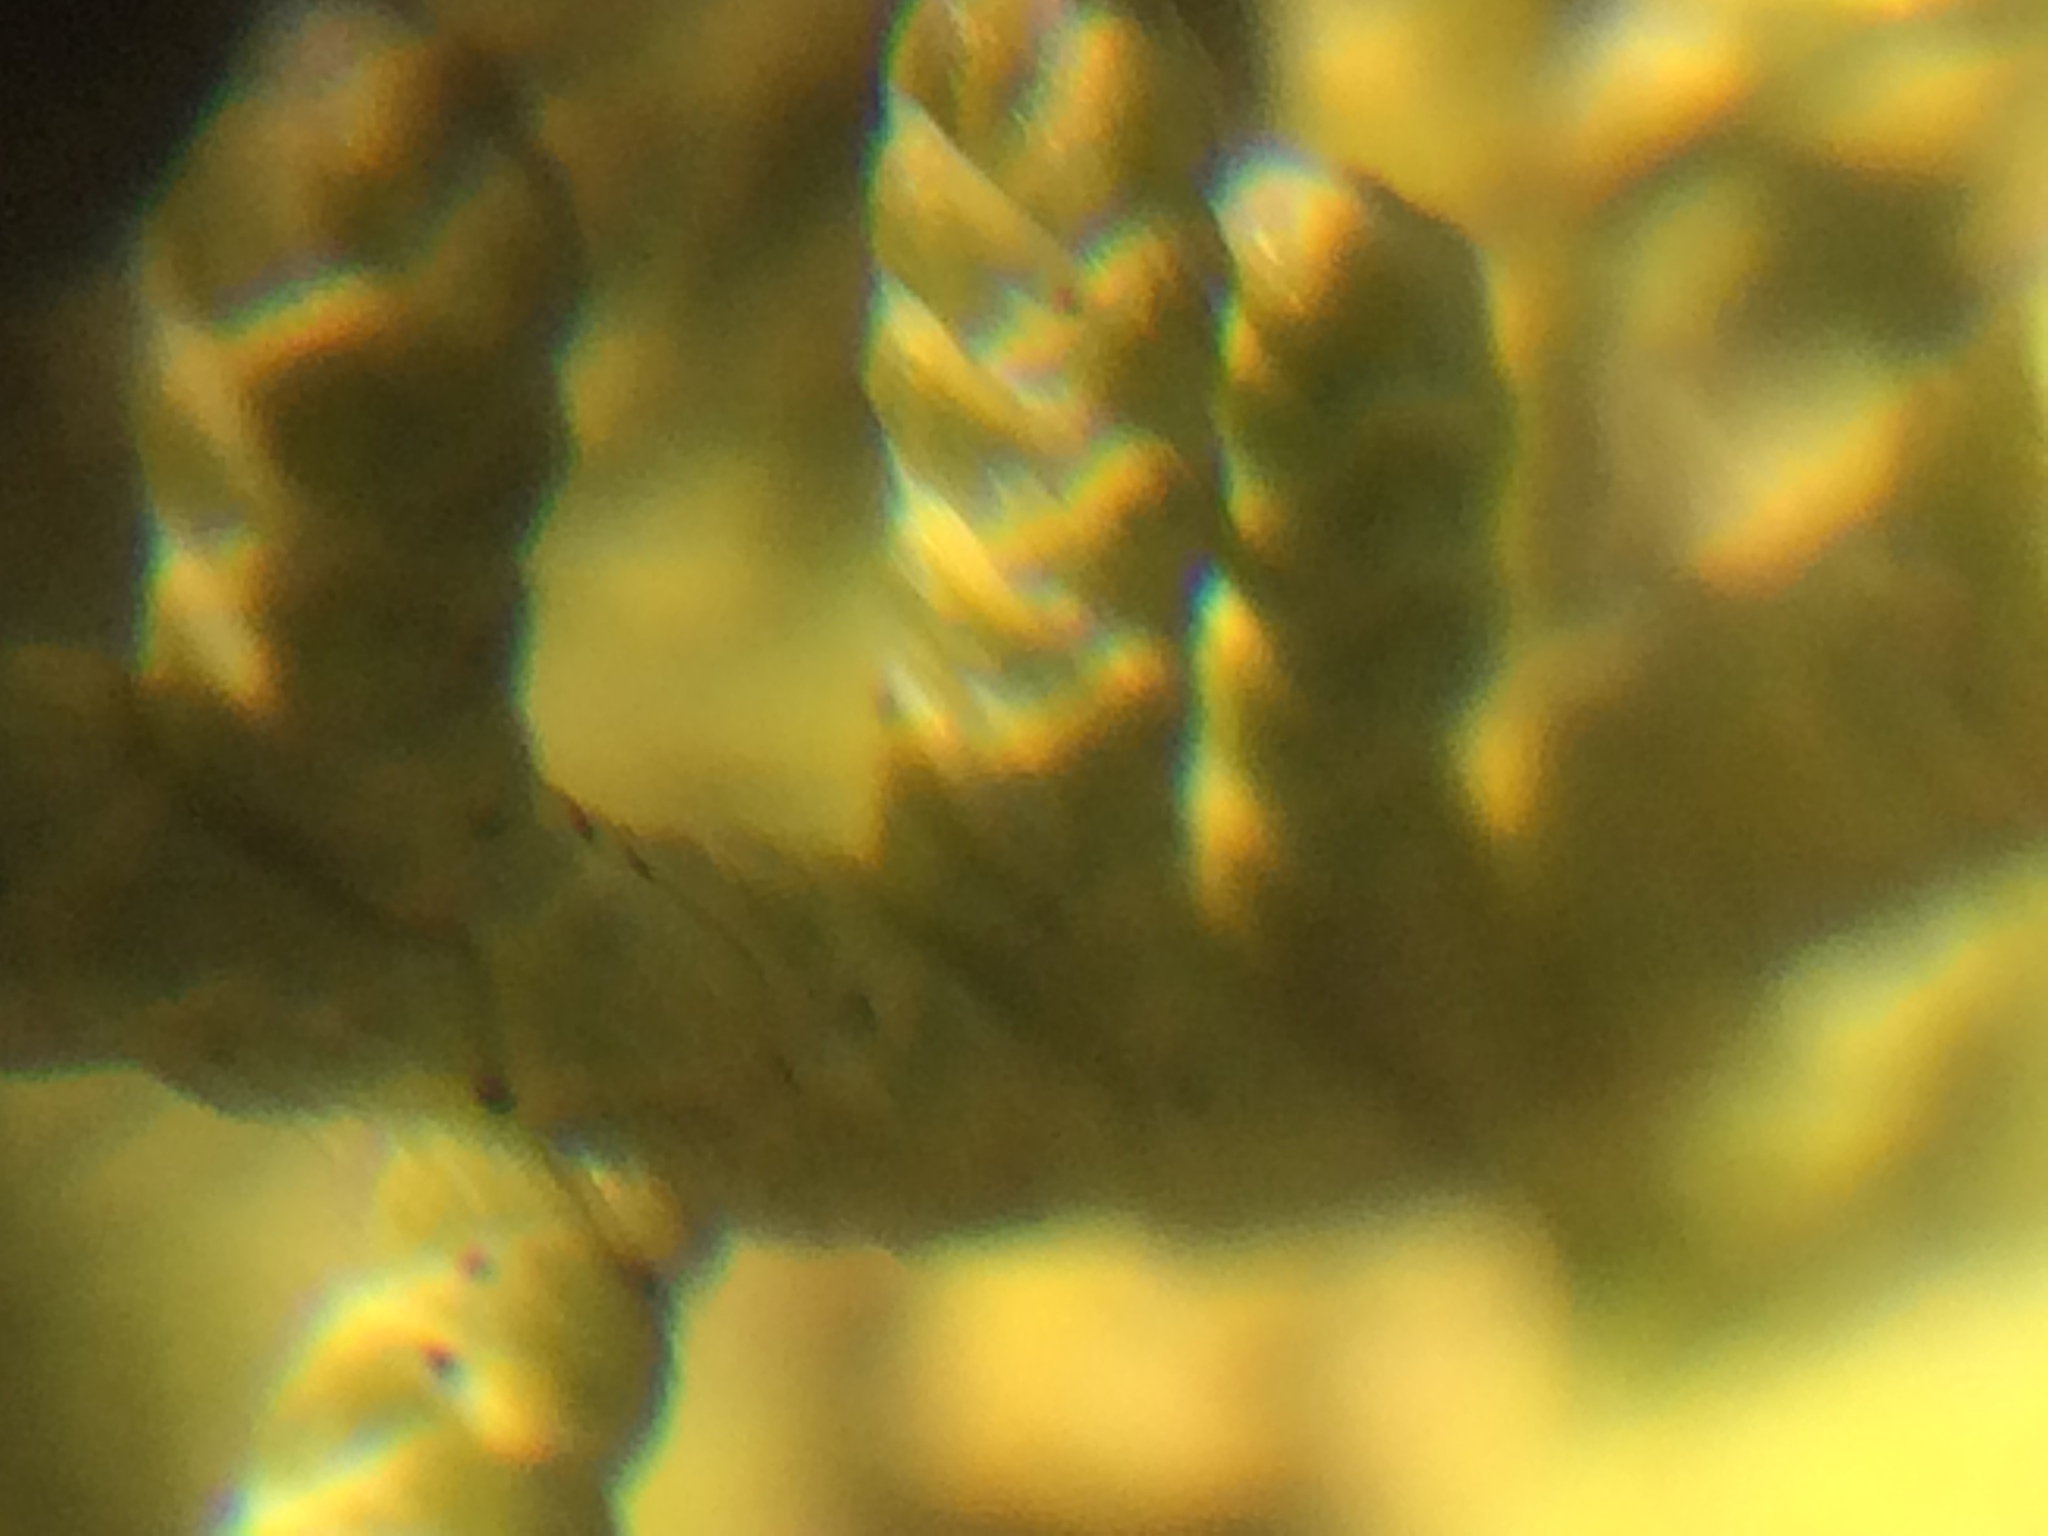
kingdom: Plantae
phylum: Tracheophyta
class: Pinopsida
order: Pinales
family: Cupressaceae
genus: Juniperus
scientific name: Juniperus phoenicea
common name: Phoenician juniper
